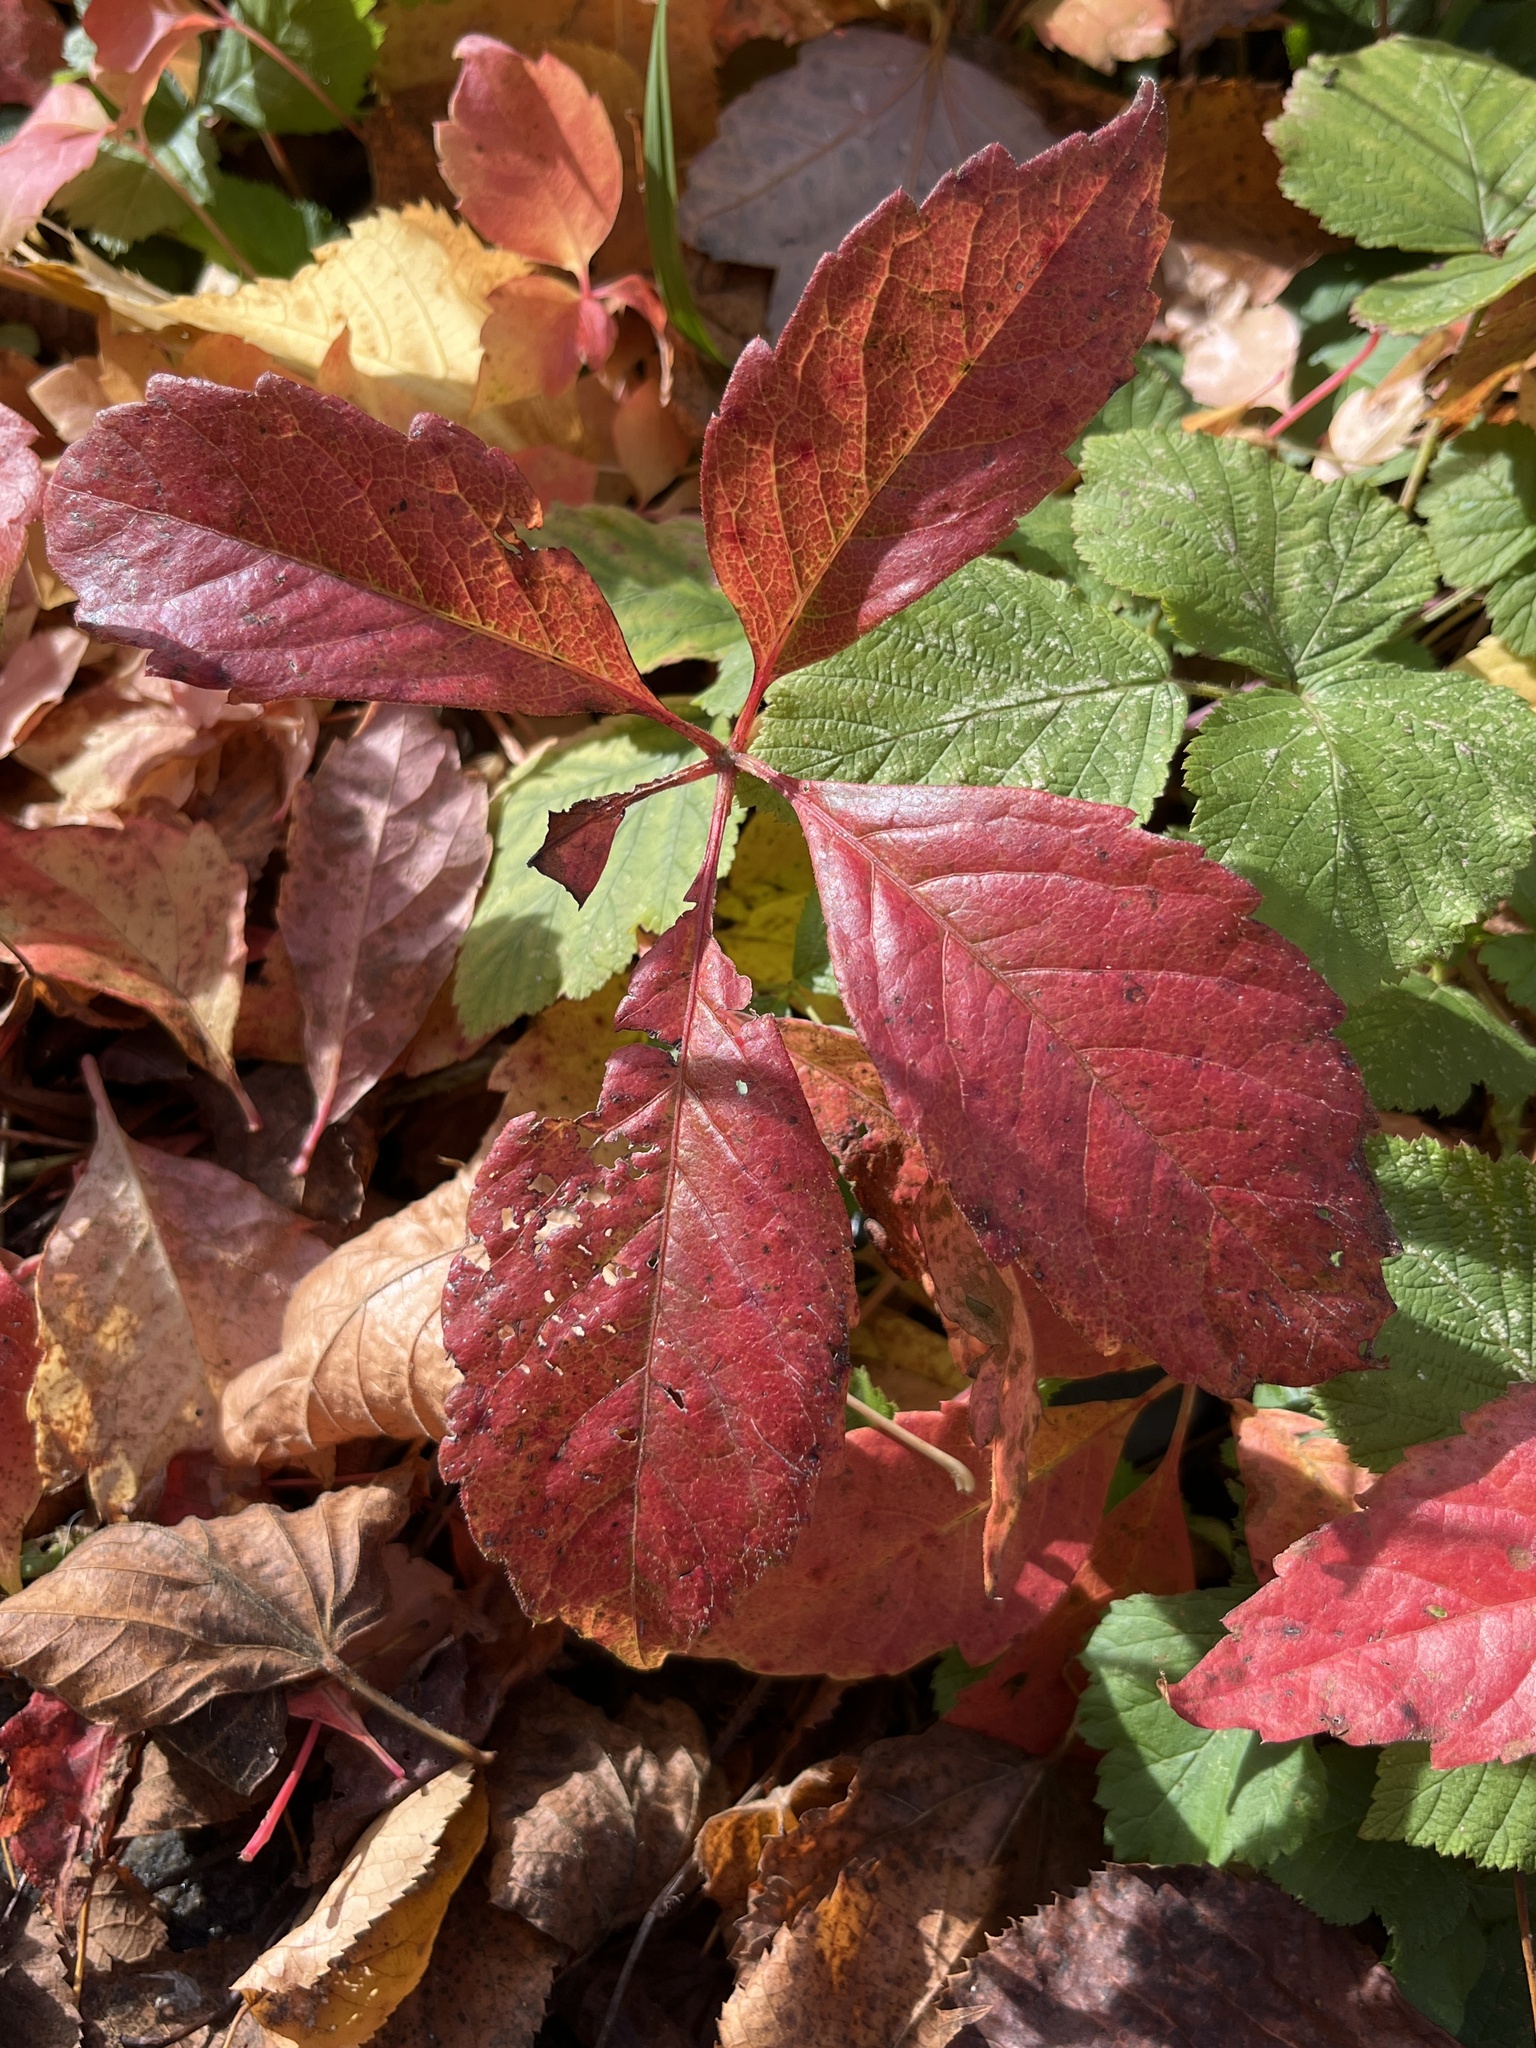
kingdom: Plantae
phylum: Tracheophyta
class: Magnoliopsida
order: Vitales
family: Vitaceae
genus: Parthenocissus
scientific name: Parthenocissus quinquefolia
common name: Virginia-creeper
